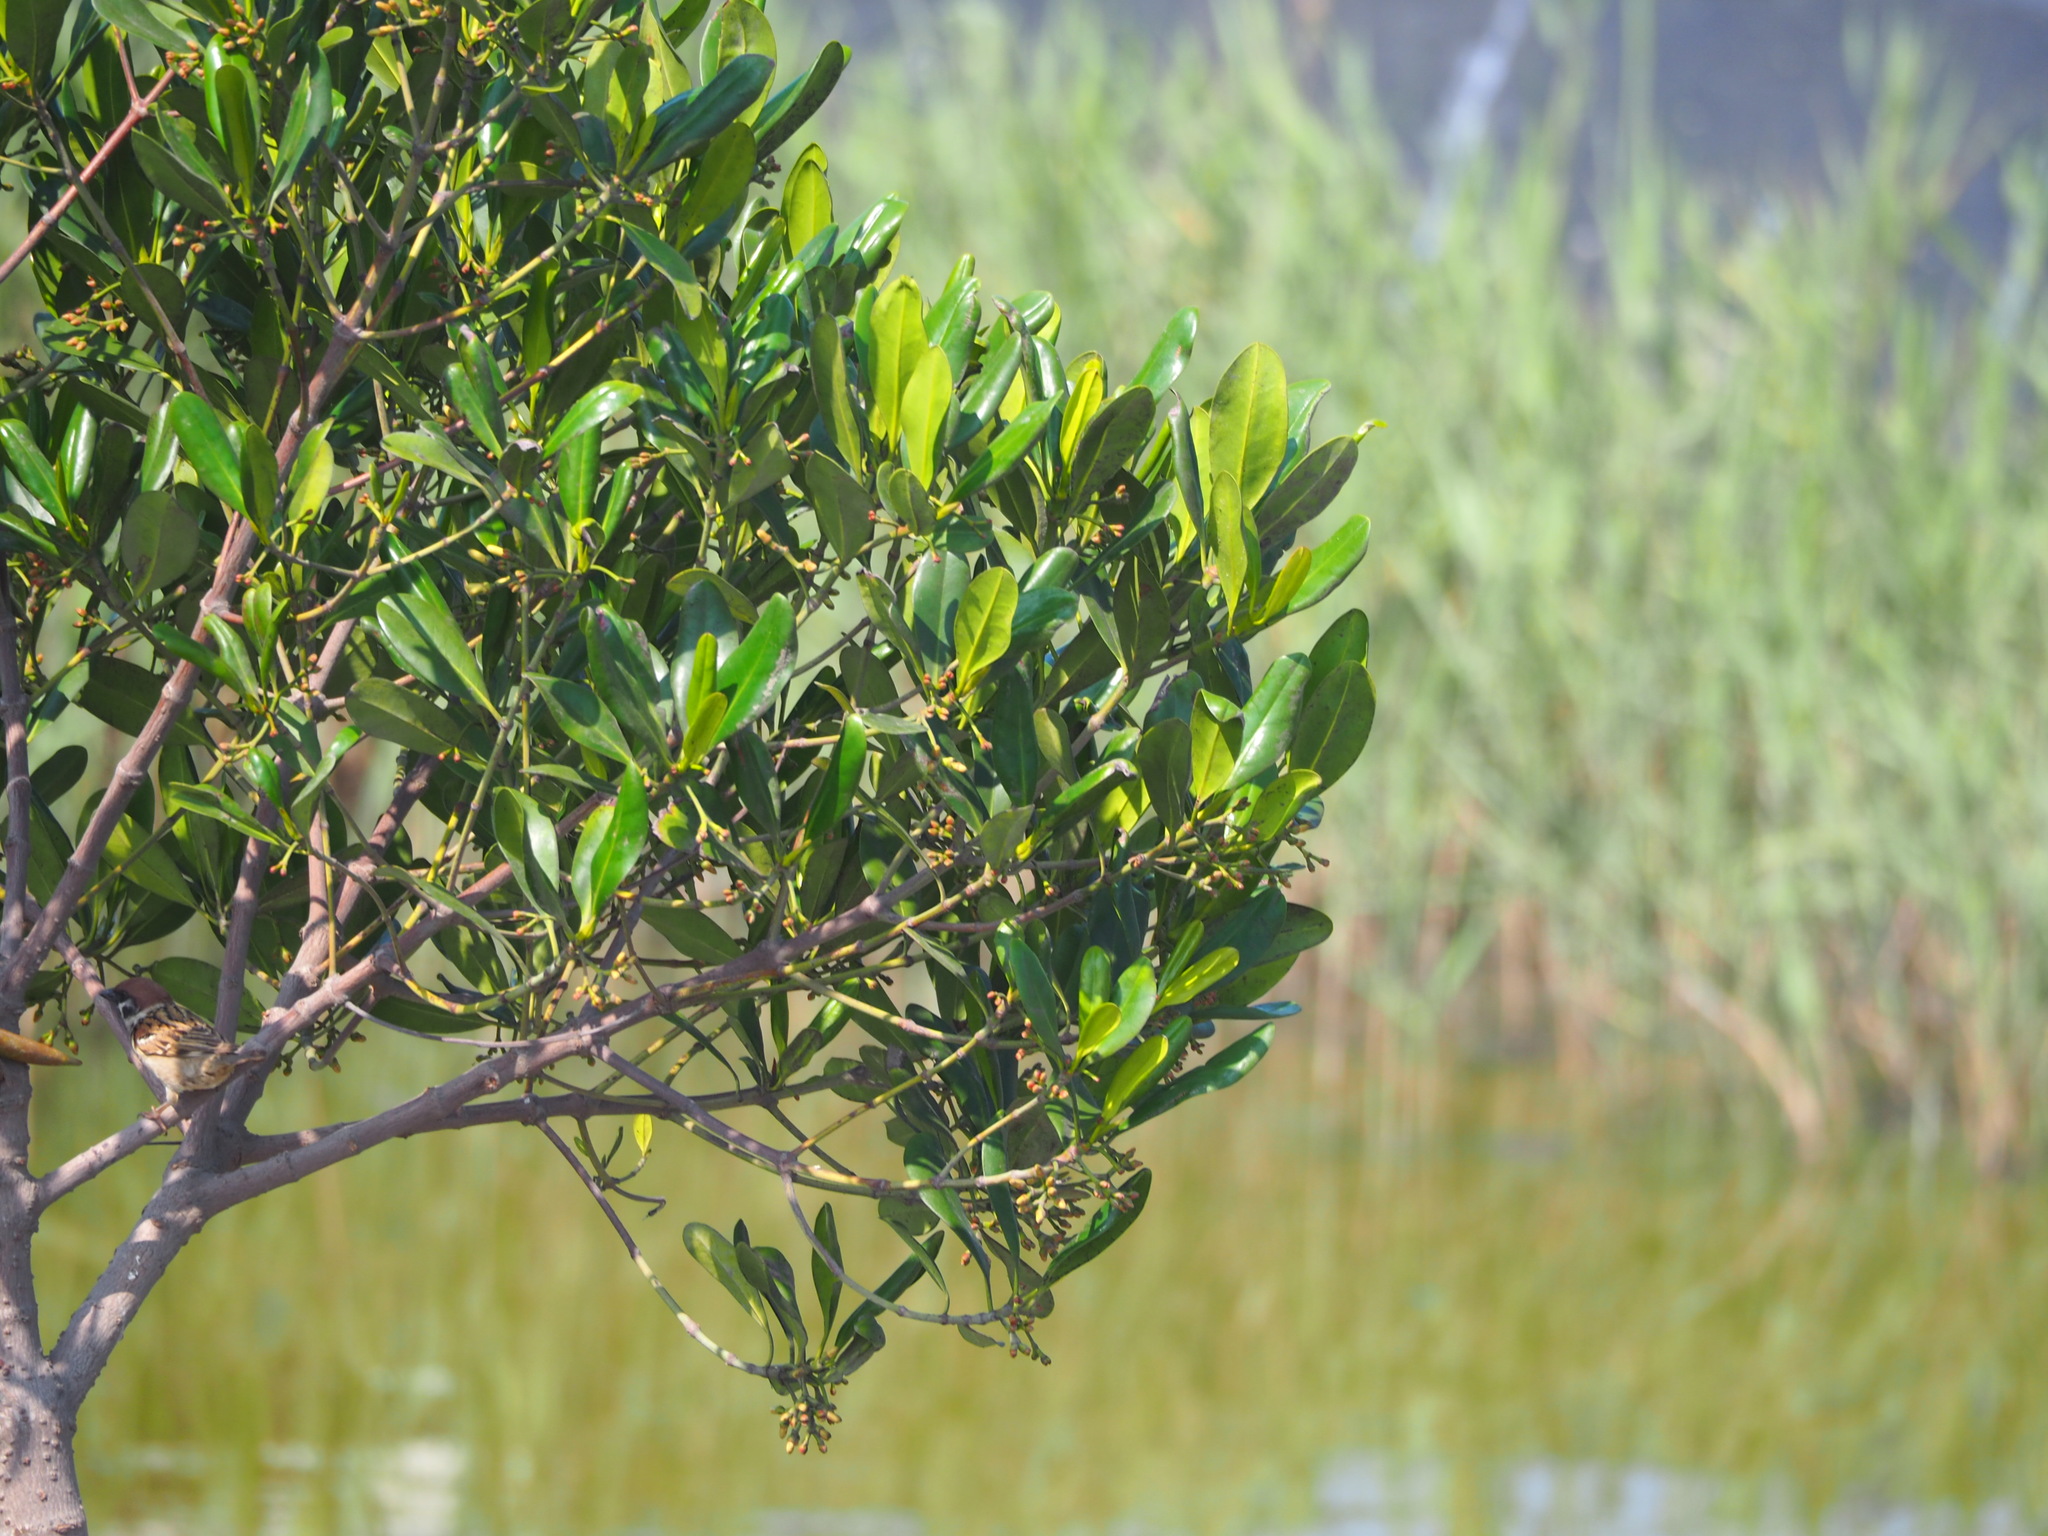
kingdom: Plantae
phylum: Tracheophyta
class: Magnoliopsida
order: Malpighiales
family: Rhizophoraceae
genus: Kandelia
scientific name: Kandelia obovata
